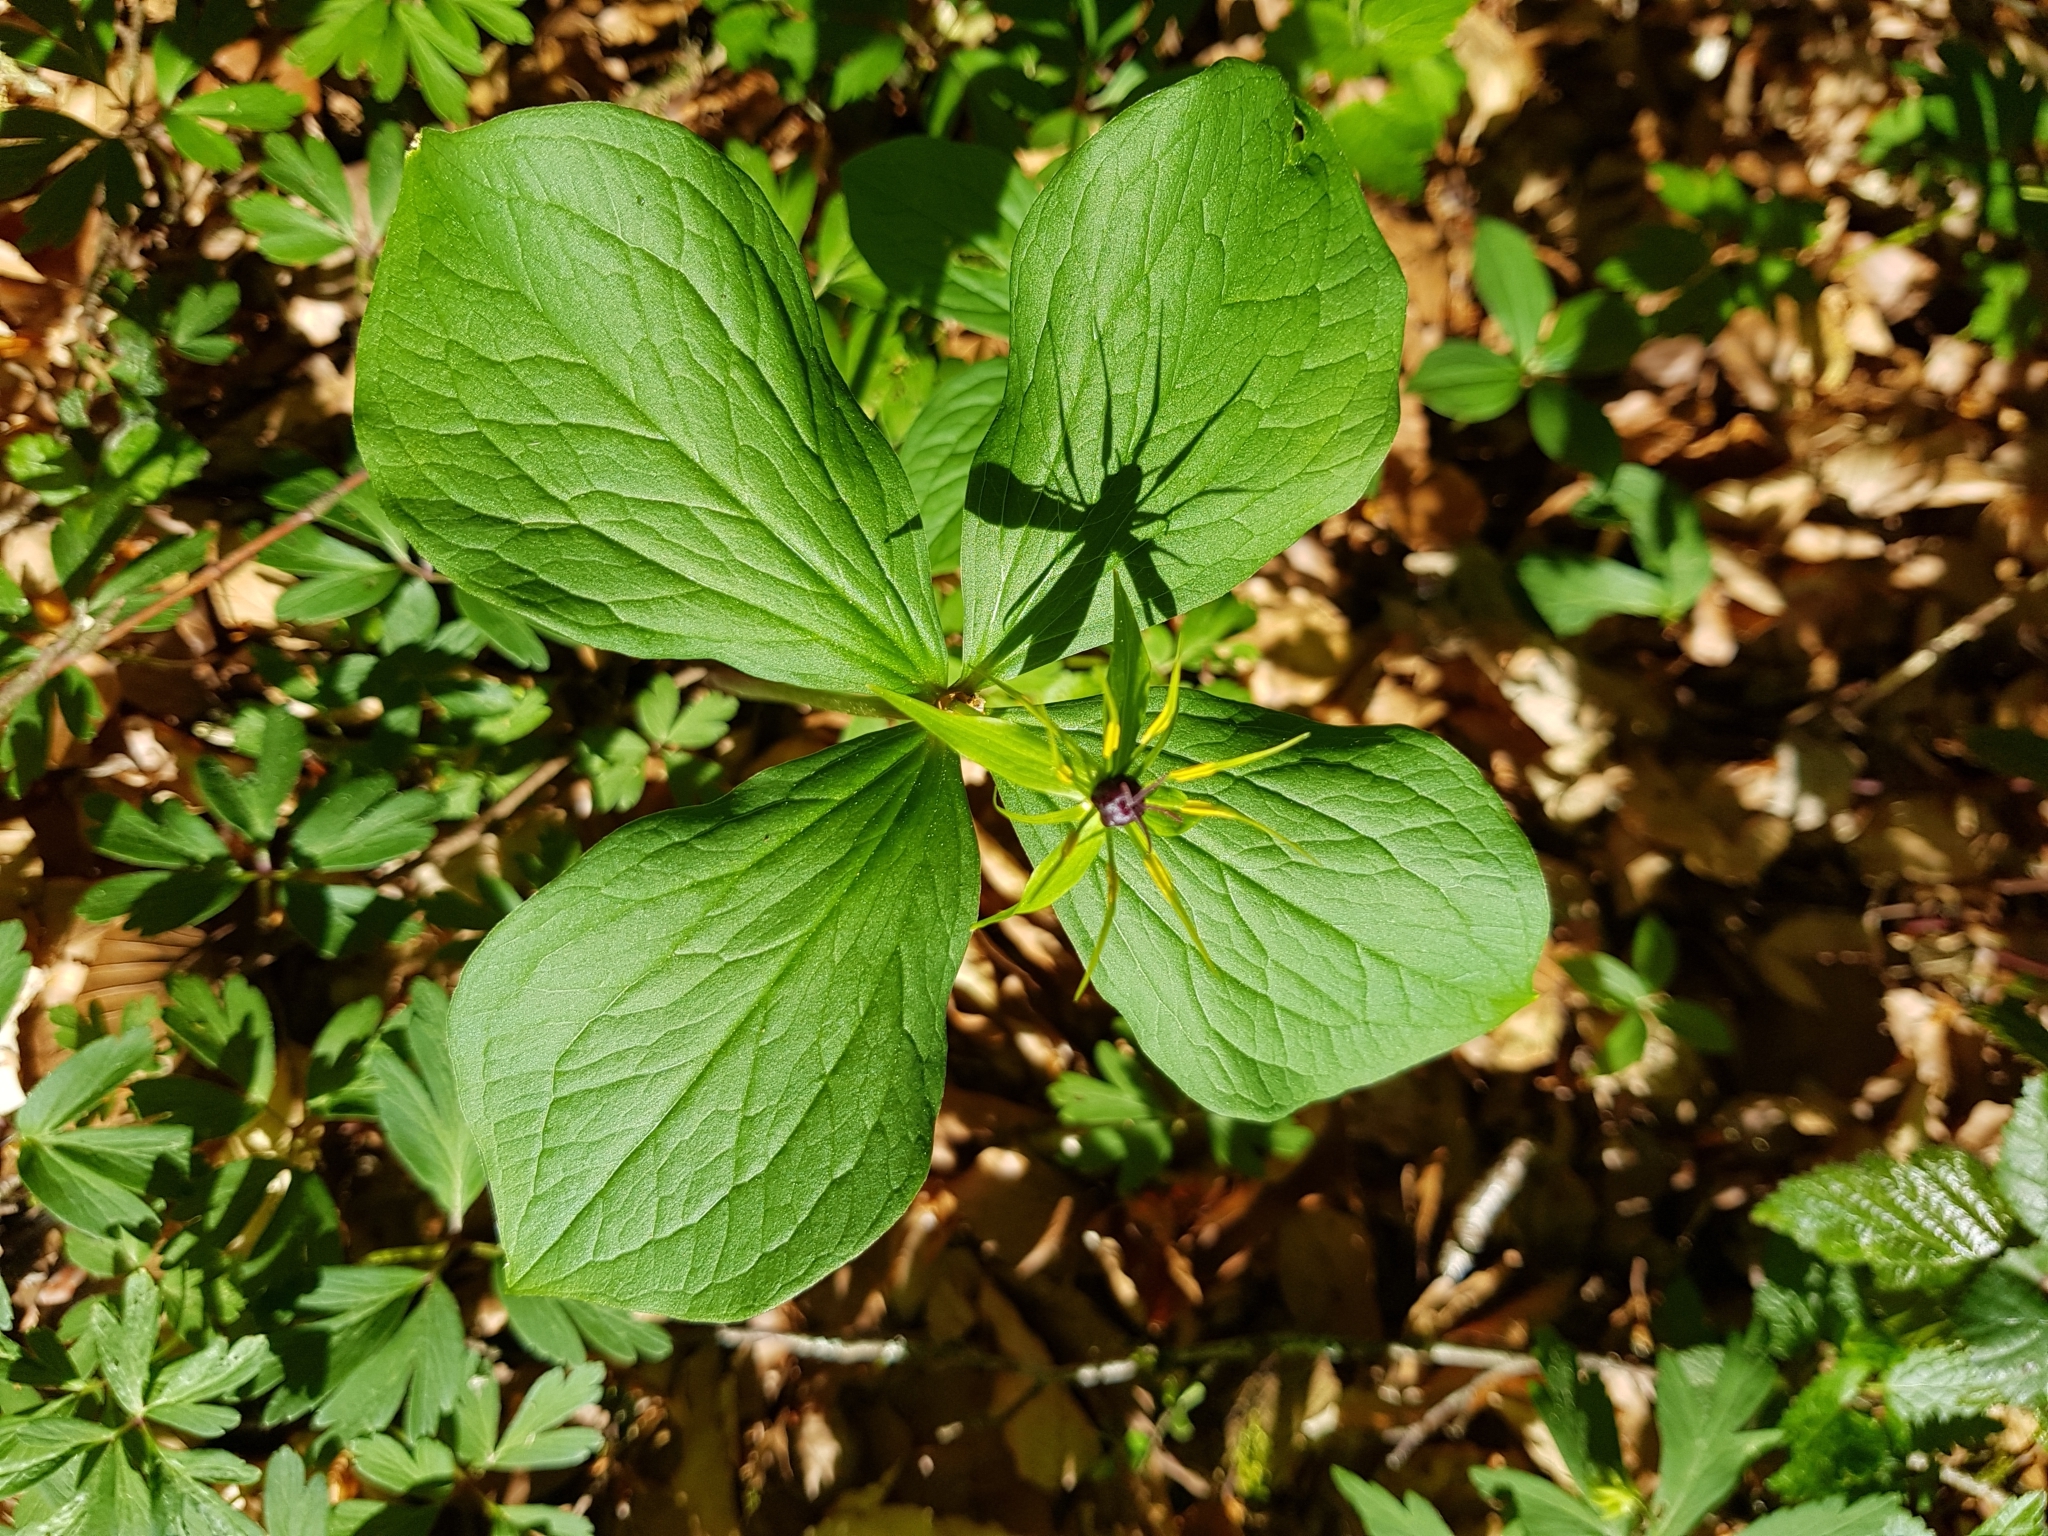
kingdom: Plantae
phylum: Tracheophyta
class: Liliopsida
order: Liliales
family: Melanthiaceae
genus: Paris
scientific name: Paris quadrifolia
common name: Herb-paris
